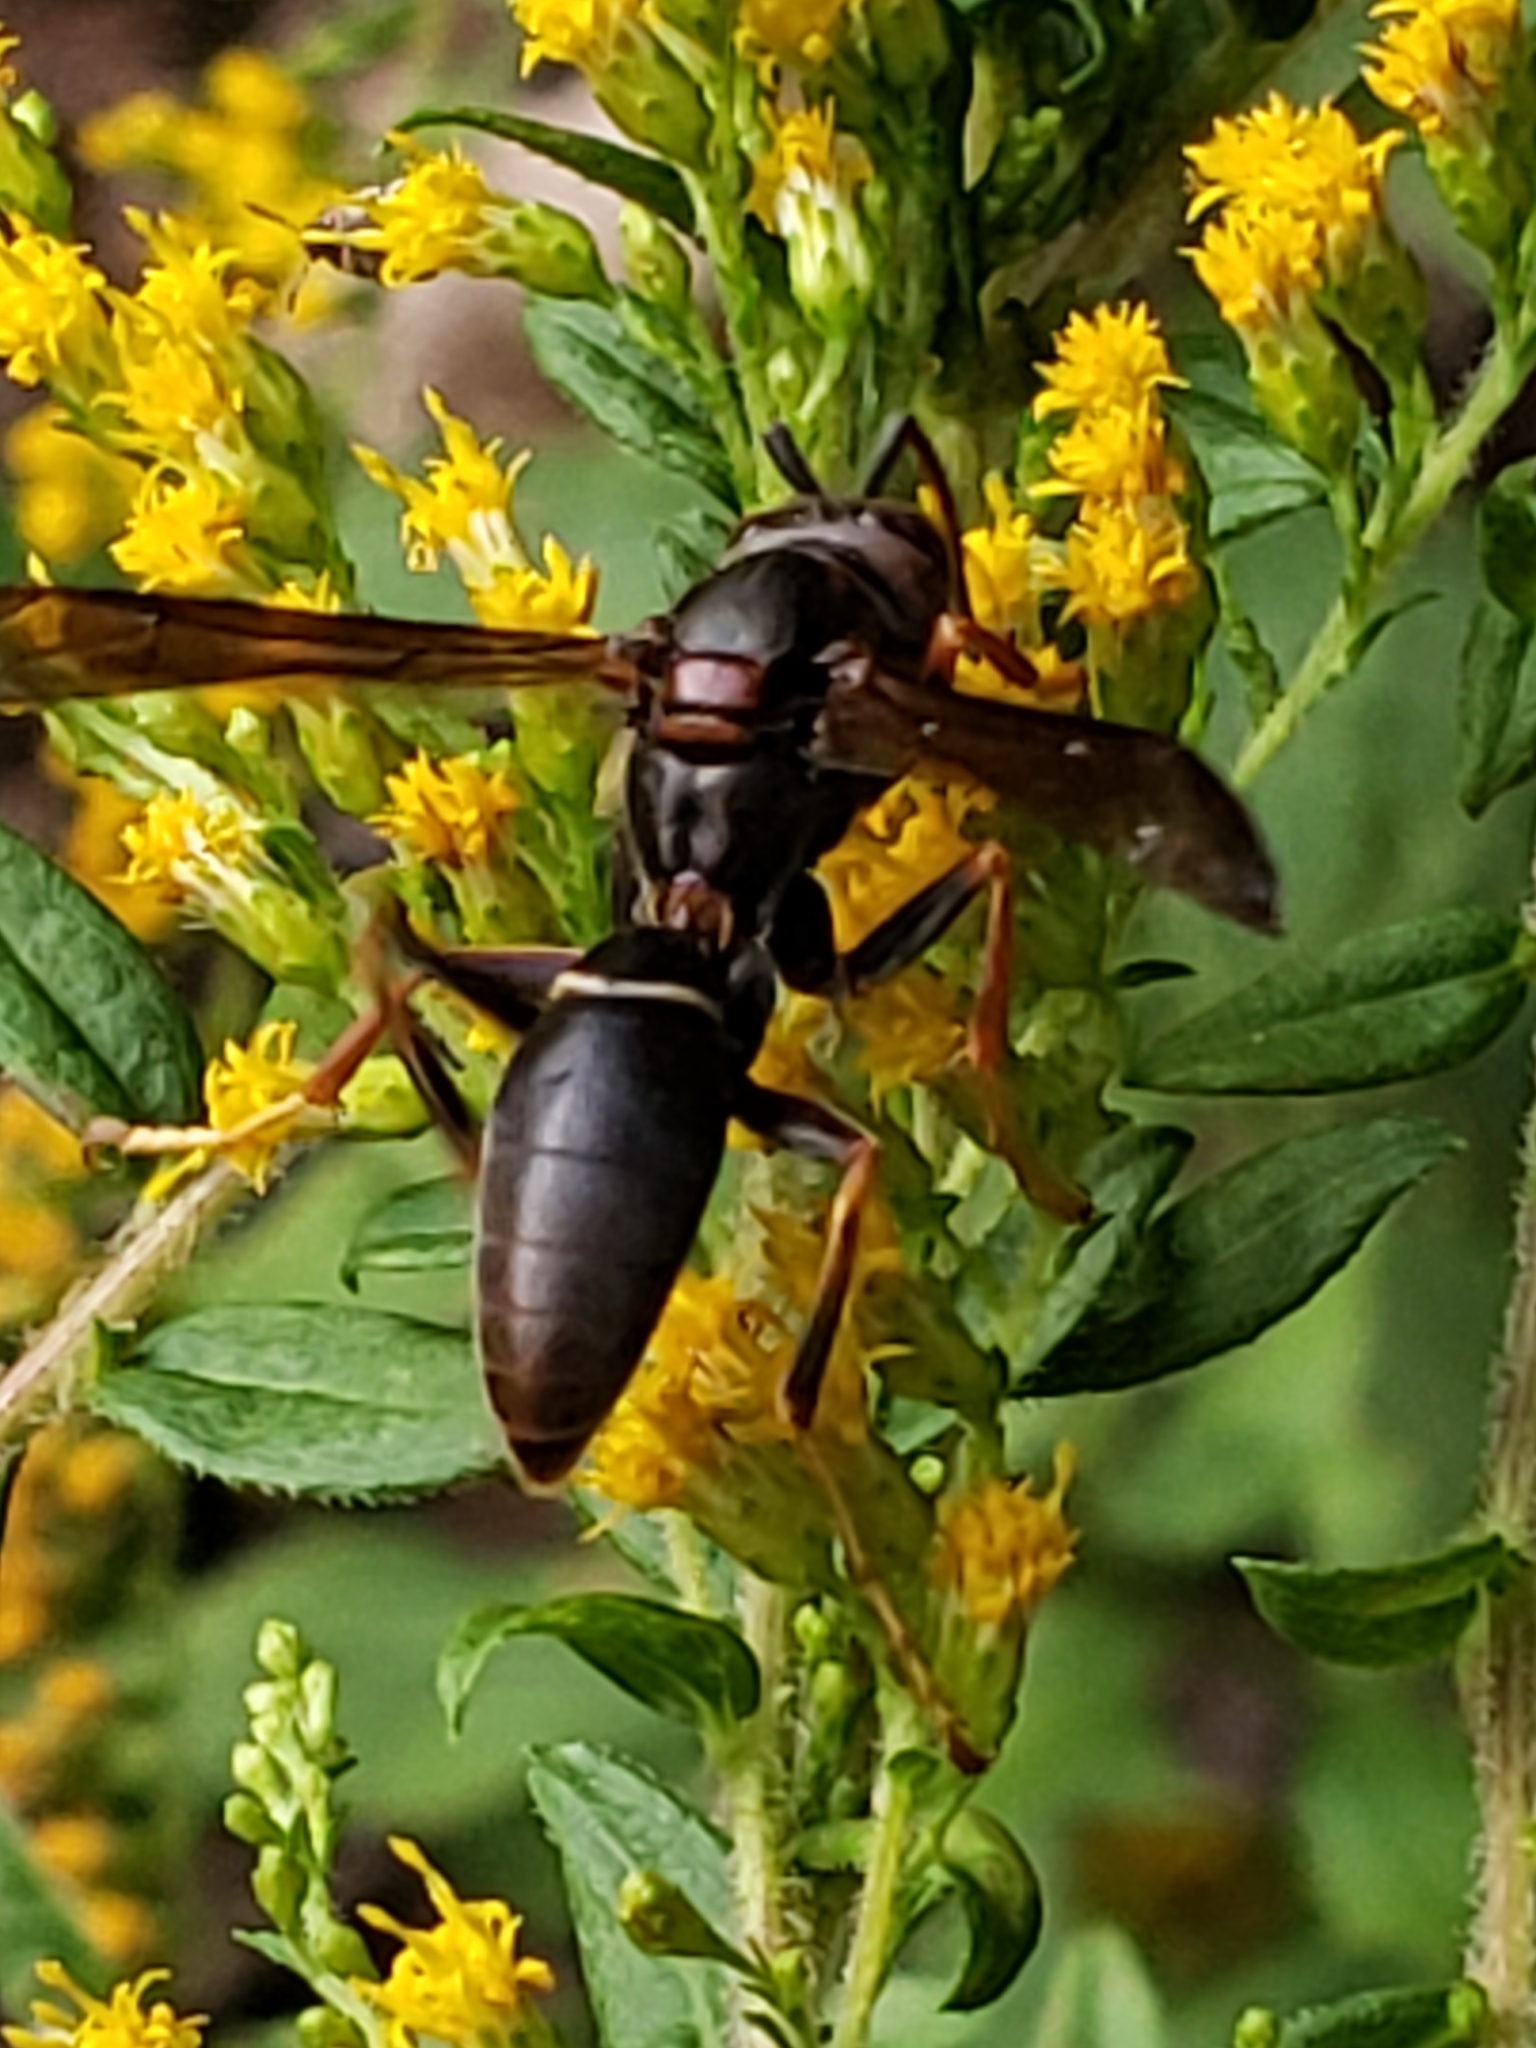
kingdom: Animalia
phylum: Arthropoda
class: Insecta
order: Hymenoptera
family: Eumenidae
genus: Polistes
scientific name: Polistes fuscatus
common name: Dark paper wasp
